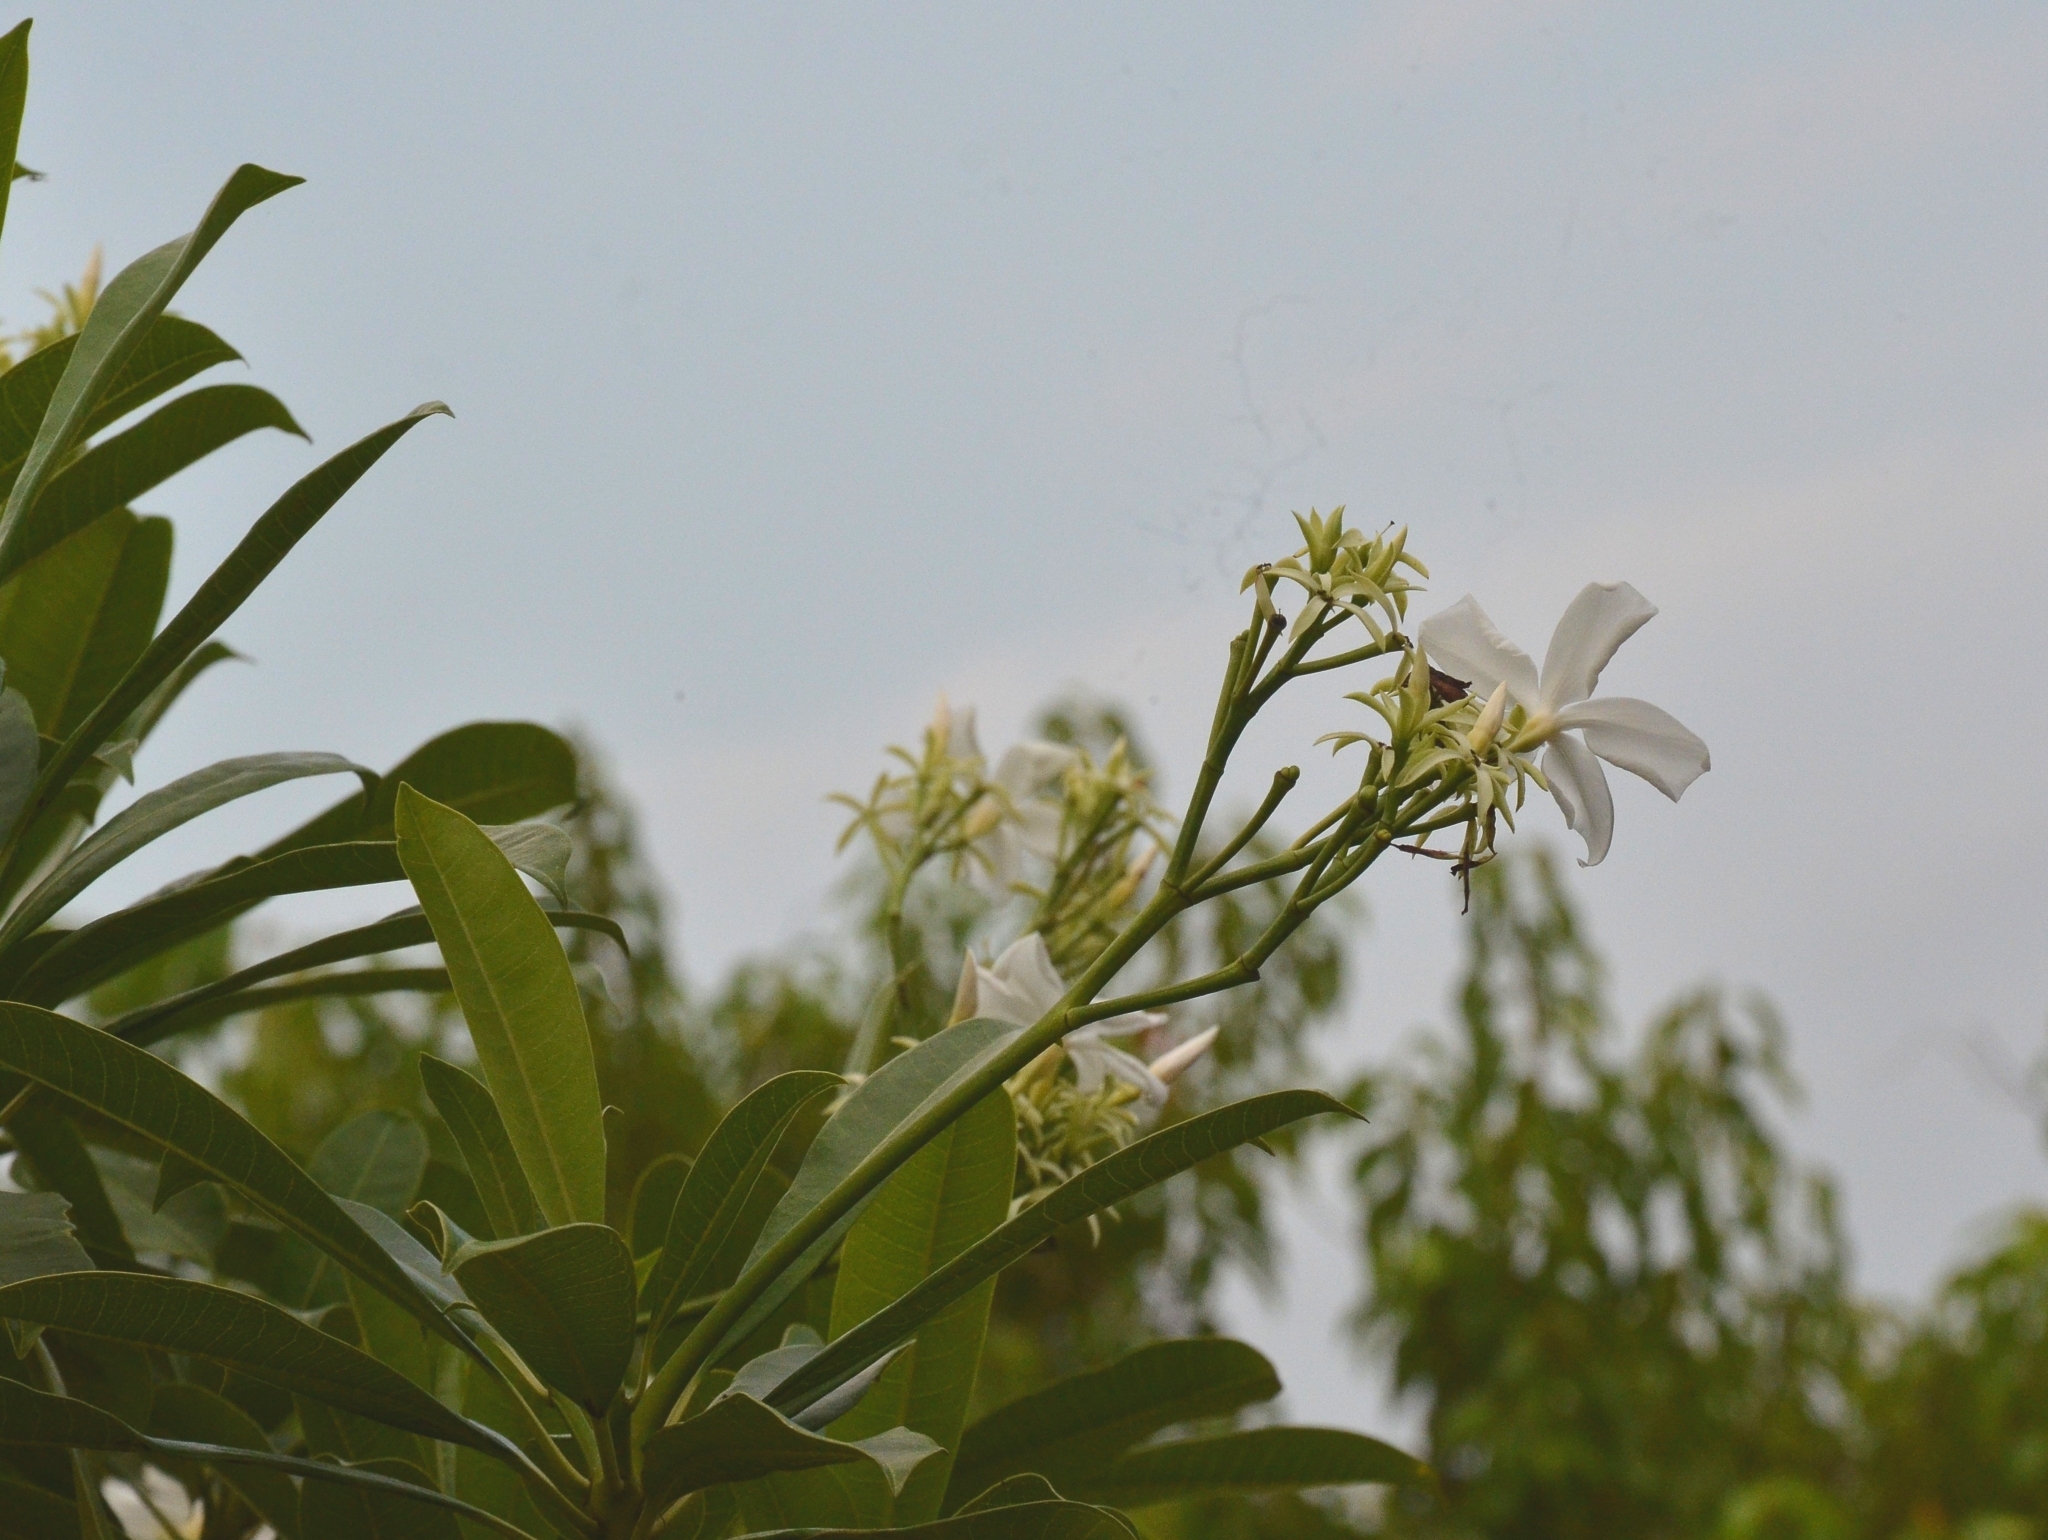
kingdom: Plantae
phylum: Tracheophyta
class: Magnoliopsida
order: Gentianales
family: Apocynaceae
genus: Cerbera
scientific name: Cerbera odollam
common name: Pong-pong
